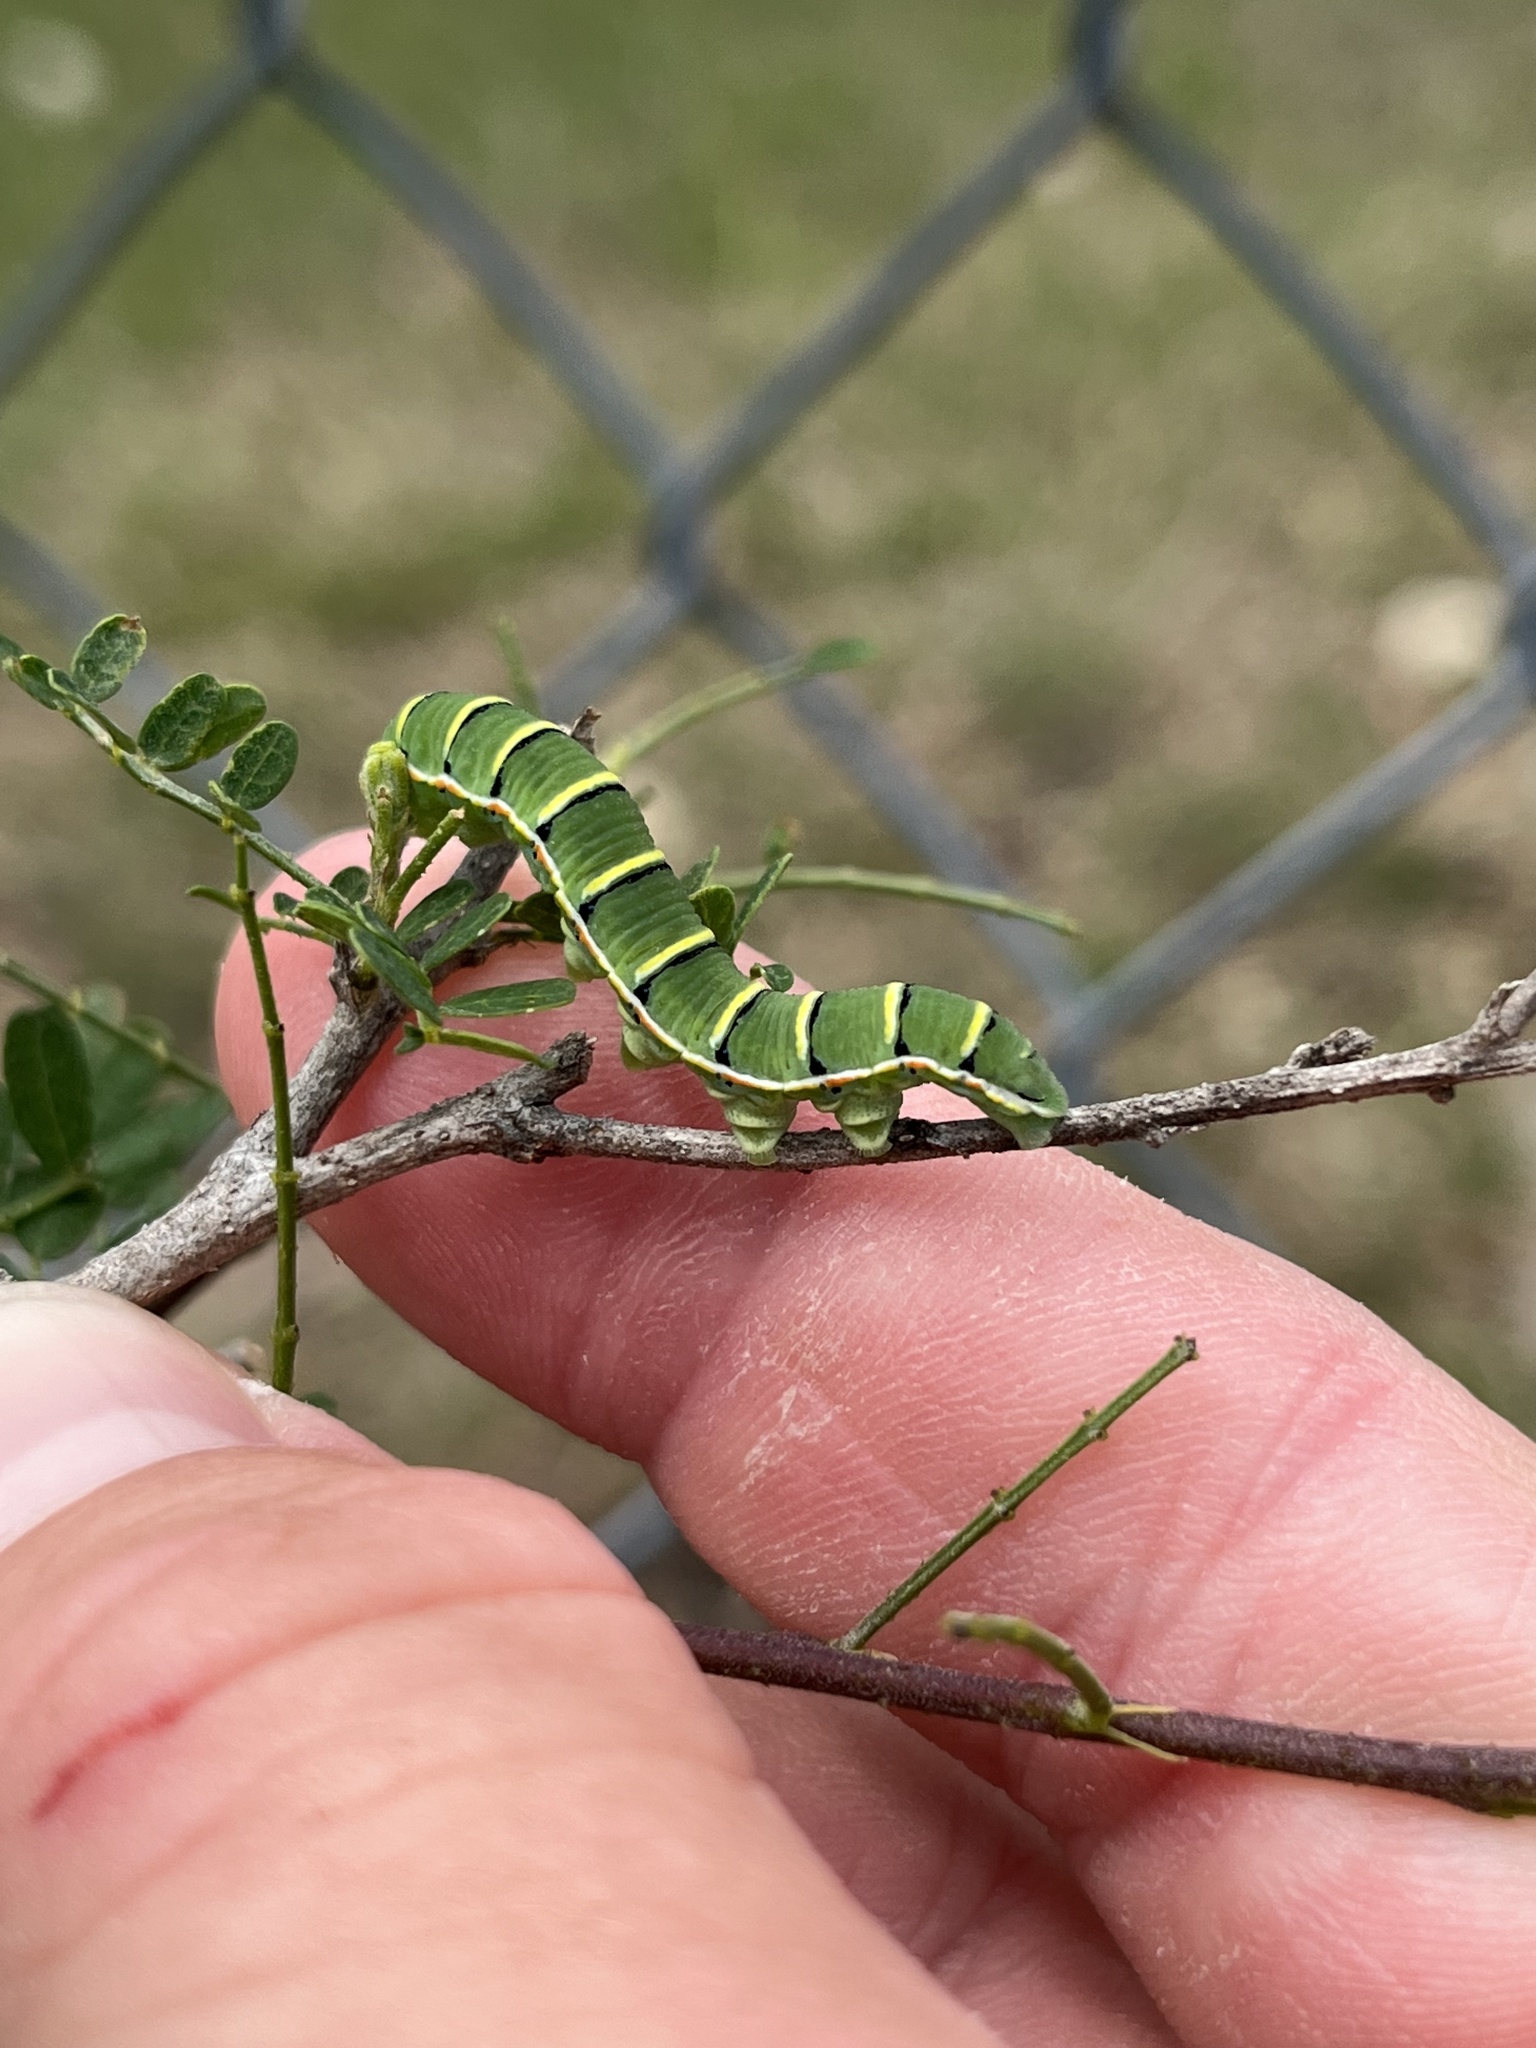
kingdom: Animalia
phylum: Arthropoda
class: Insecta
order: Lepidoptera
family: Pieridae
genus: Zerene
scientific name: Zerene cesonia
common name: Southern dogface
